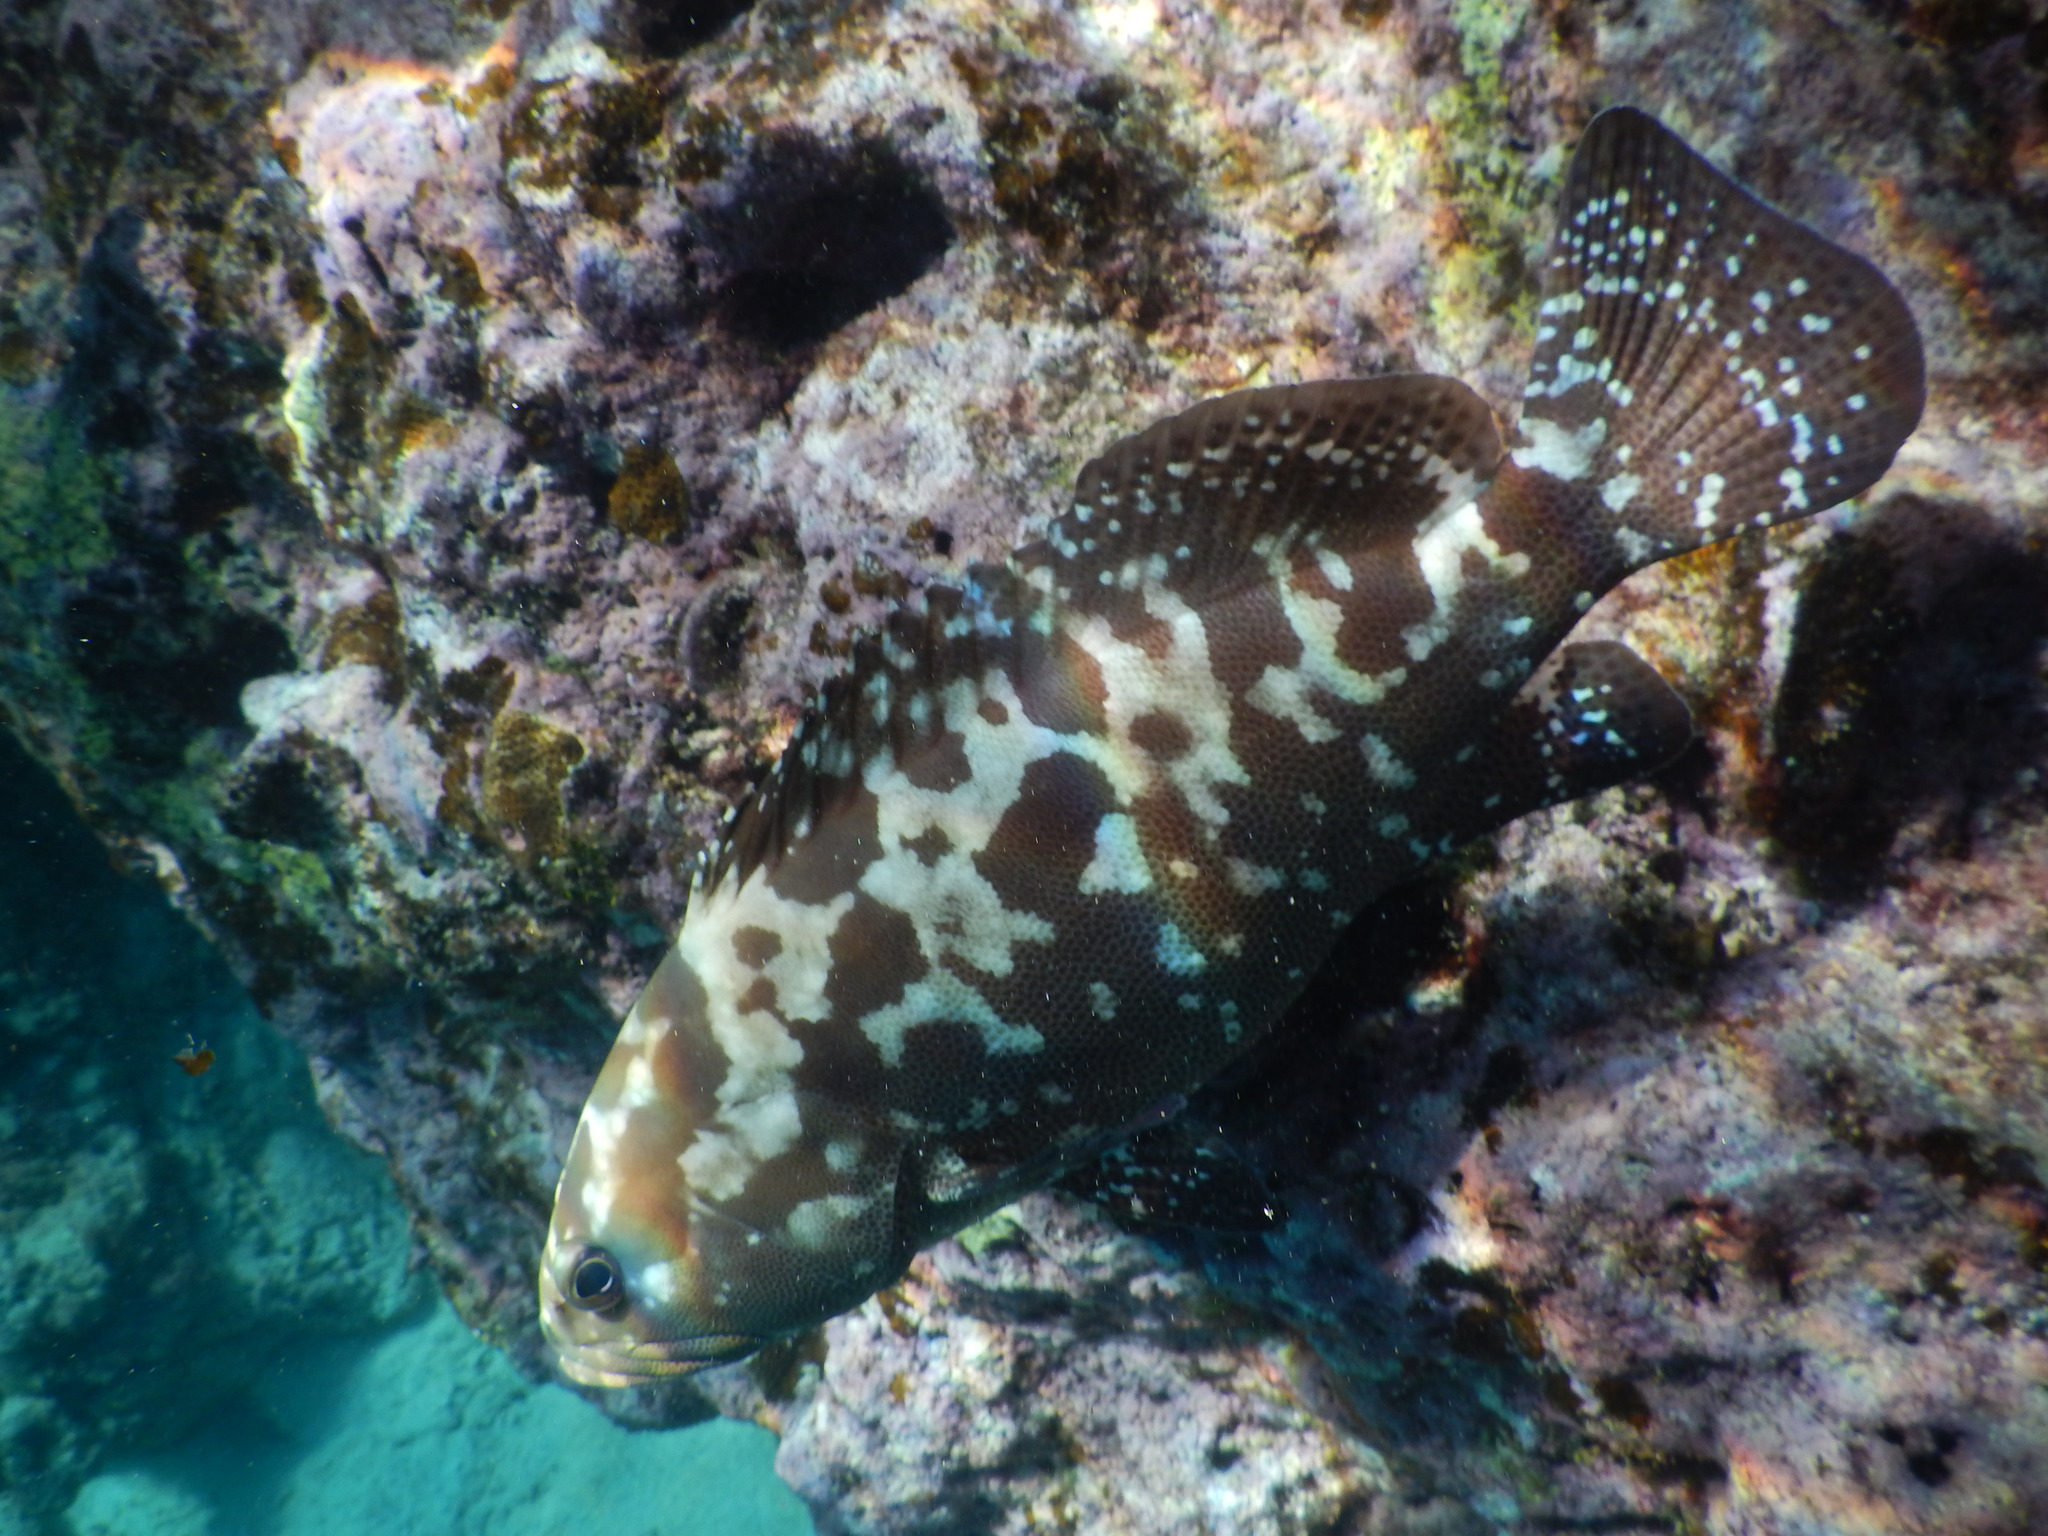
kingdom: Animalia
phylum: Chordata
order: Perciformes
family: Serranidae
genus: Epinephelus
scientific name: Epinephelus polyphekadion
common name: Camouflage grouper
